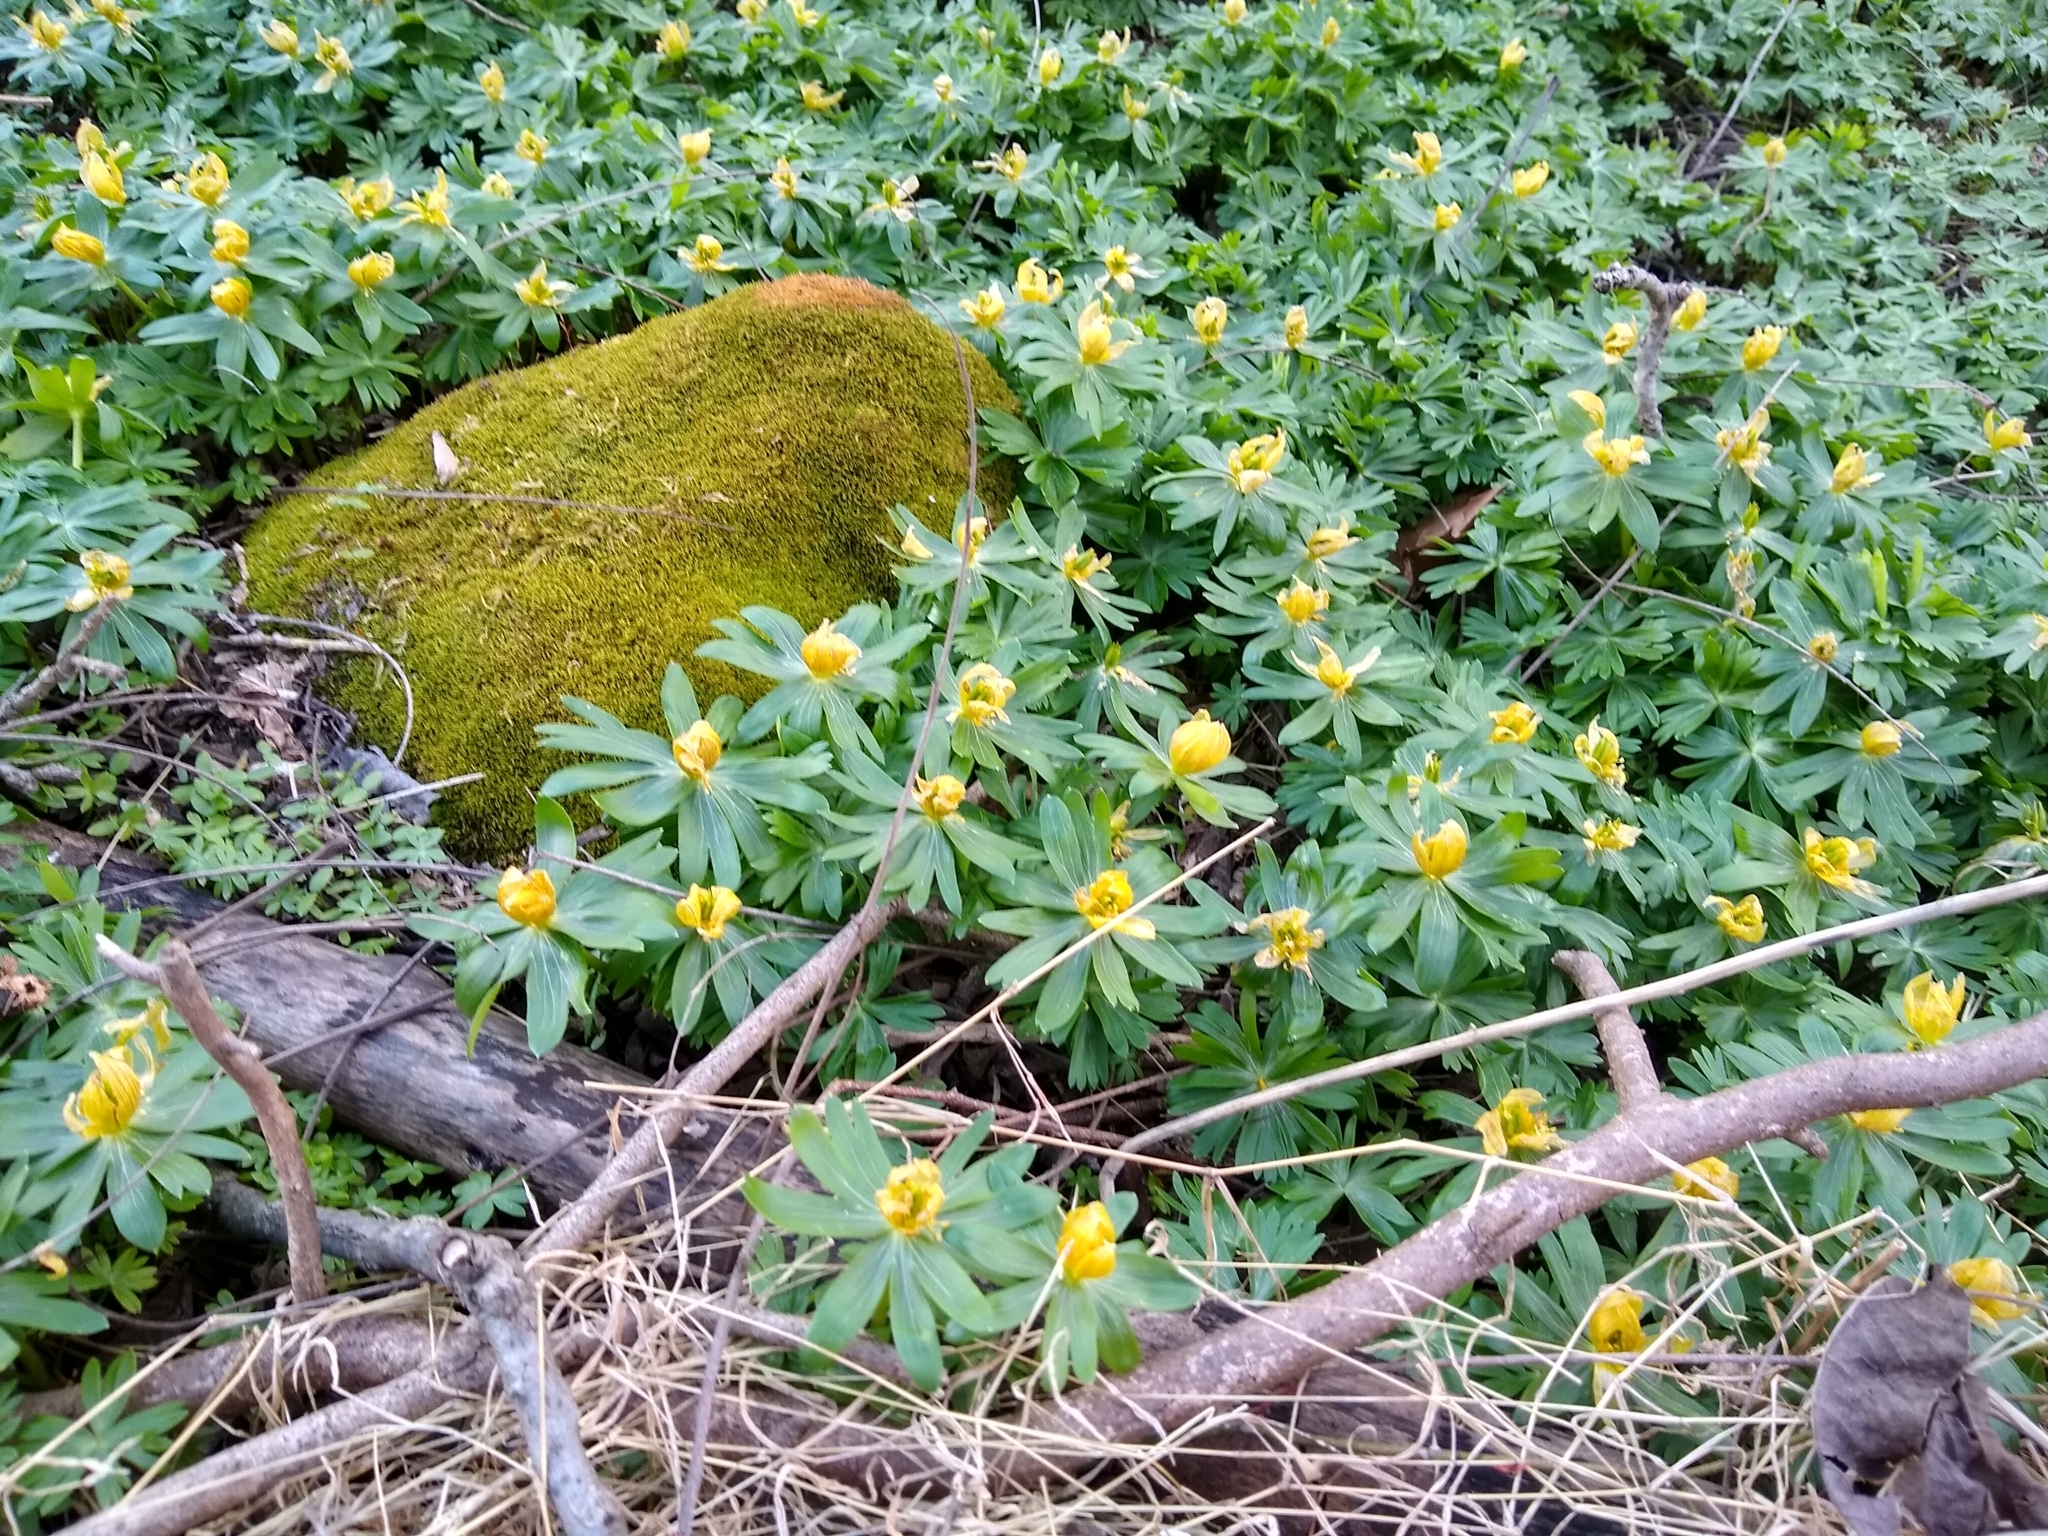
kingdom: Plantae
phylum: Tracheophyta
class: Magnoliopsida
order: Ranunculales
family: Ranunculaceae
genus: Eranthis
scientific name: Eranthis hyemalis
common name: Winter aconite
